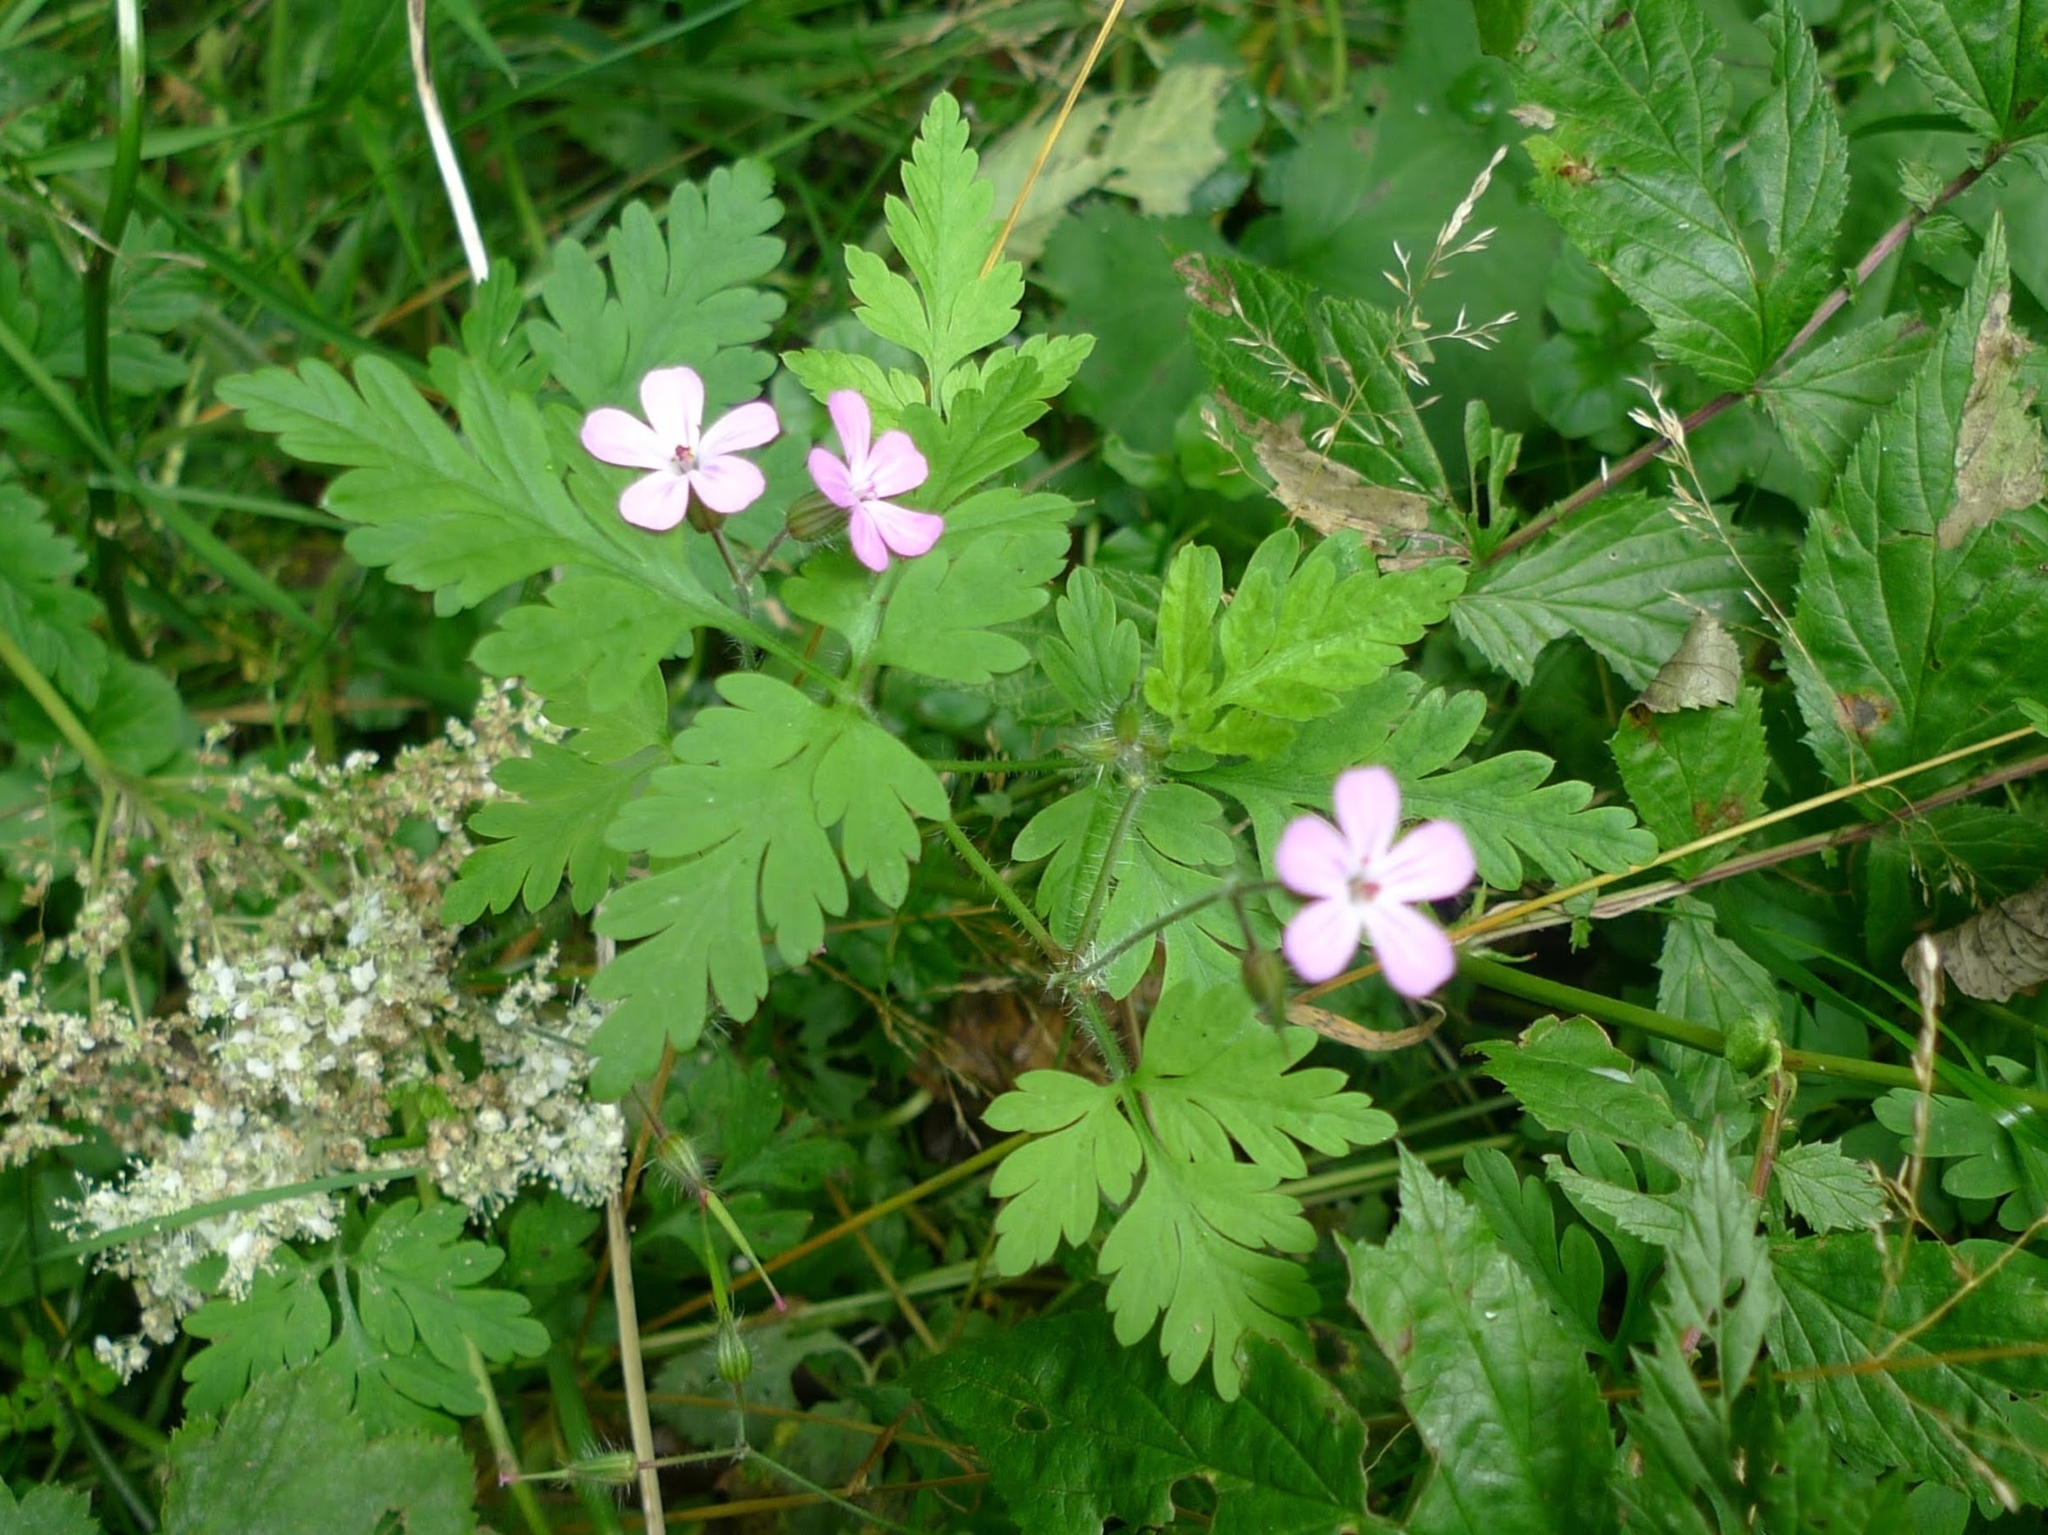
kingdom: Plantae
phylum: Tracheophyta
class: Magnoliopsida
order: Geraniales
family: Geraniaceae
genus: Geranium
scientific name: Geranium robertianum
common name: Herb-robert
